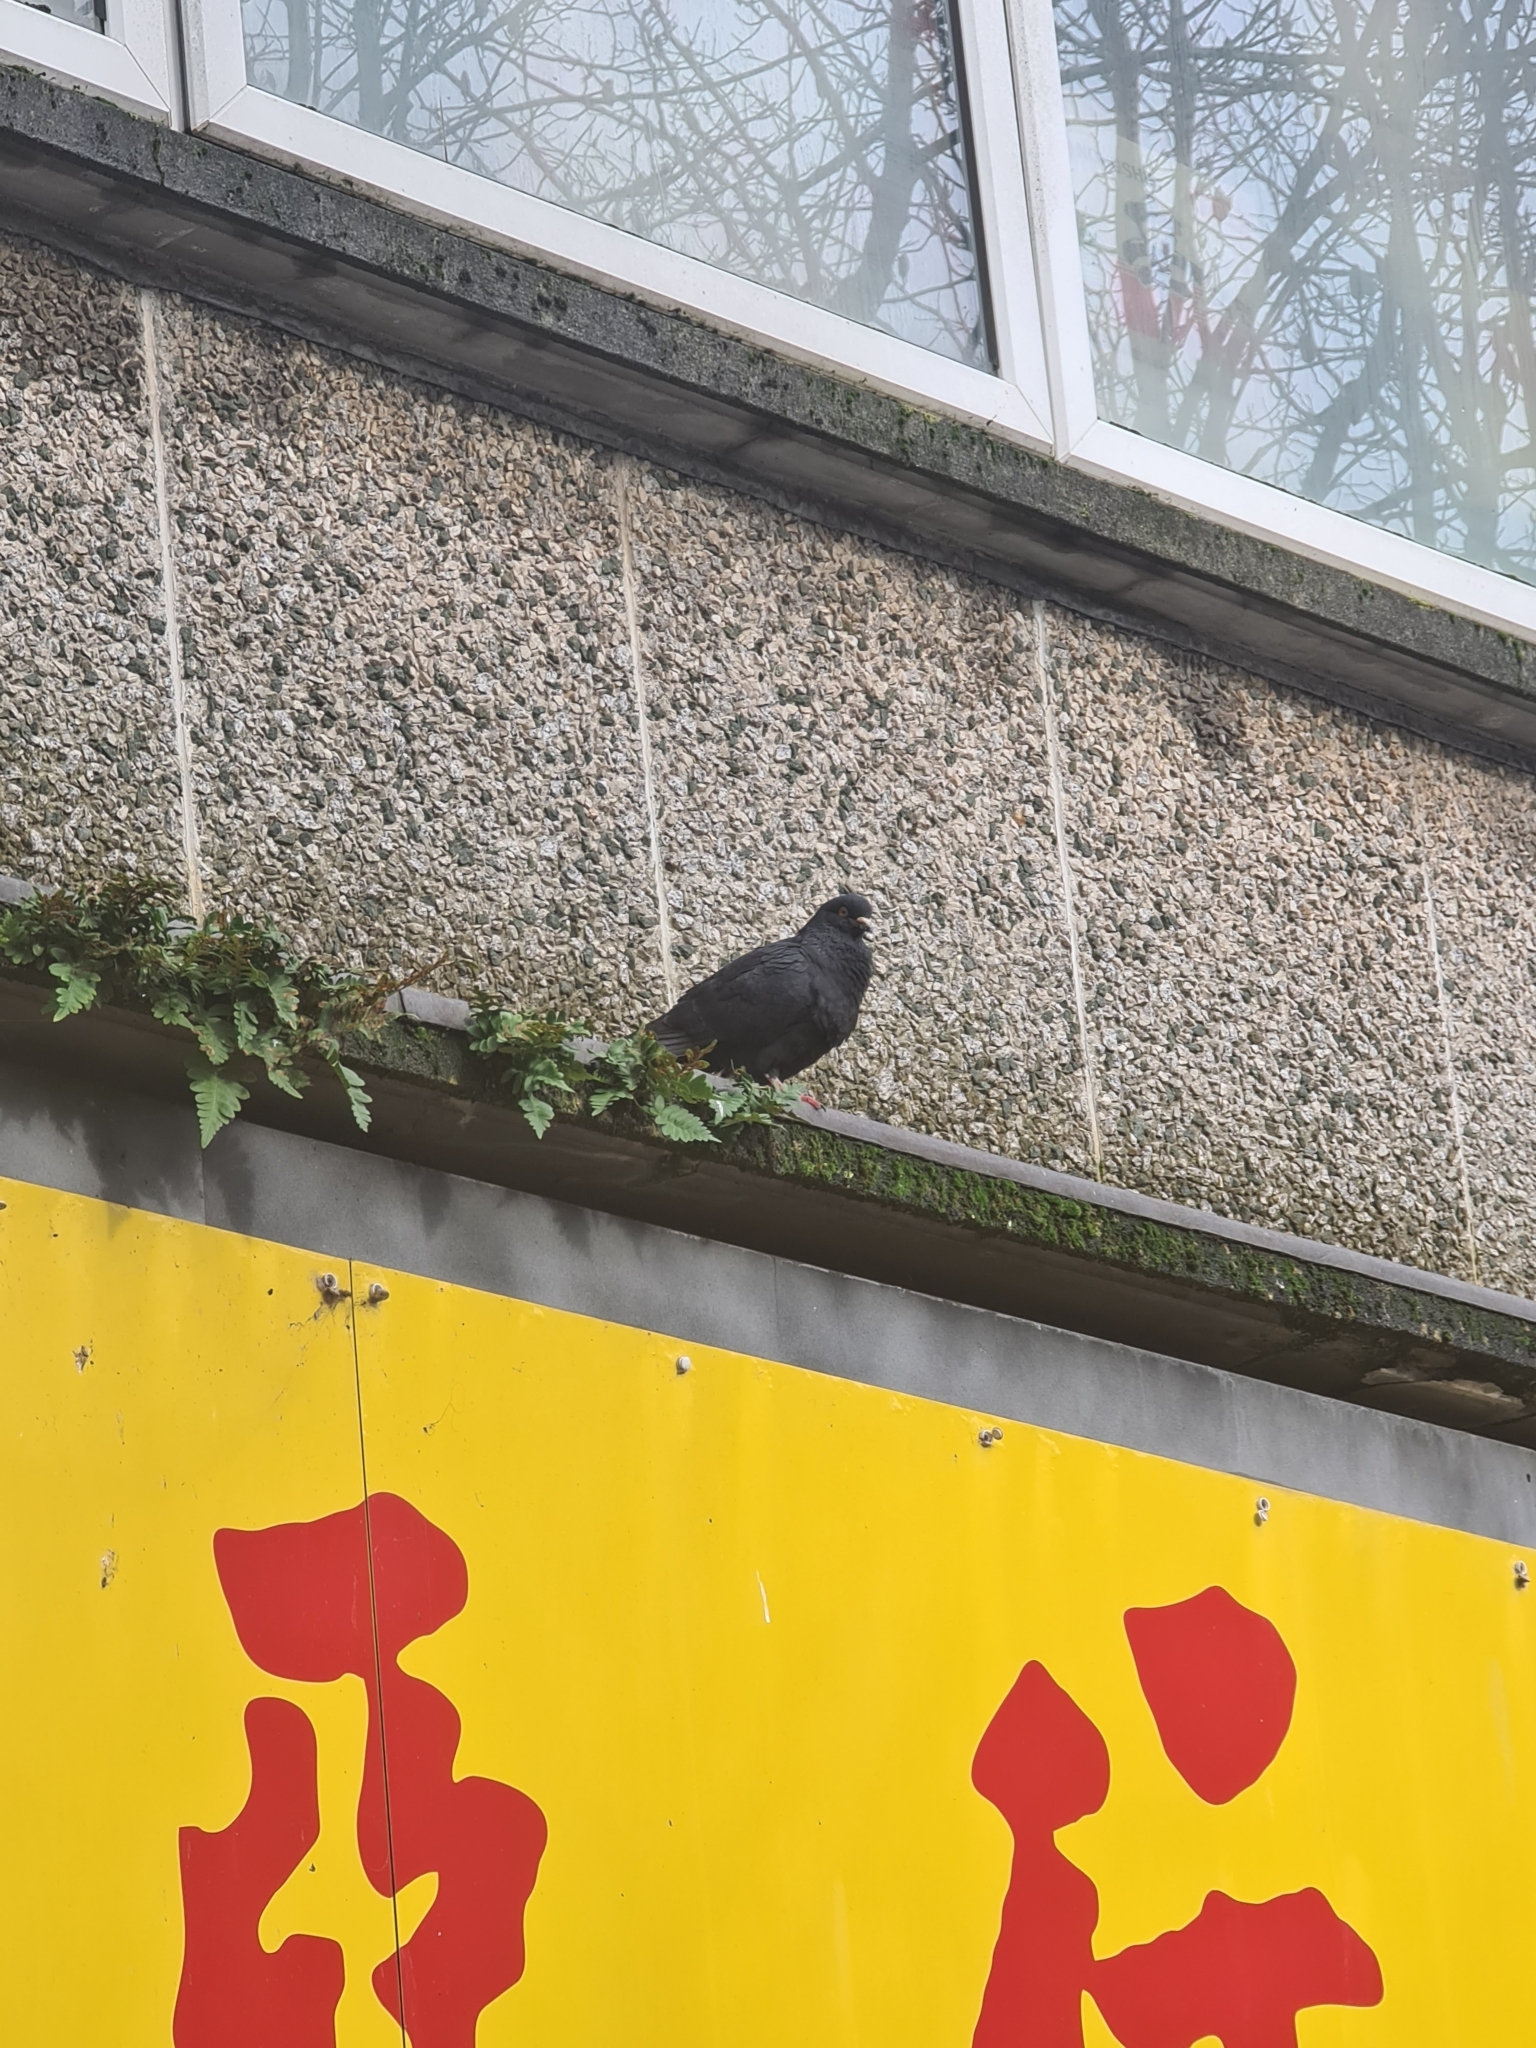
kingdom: Animalia
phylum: Chordata
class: Aves
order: Columbiformes
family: Columbidae
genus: Columba
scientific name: Columba livia
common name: Rock pigeon
